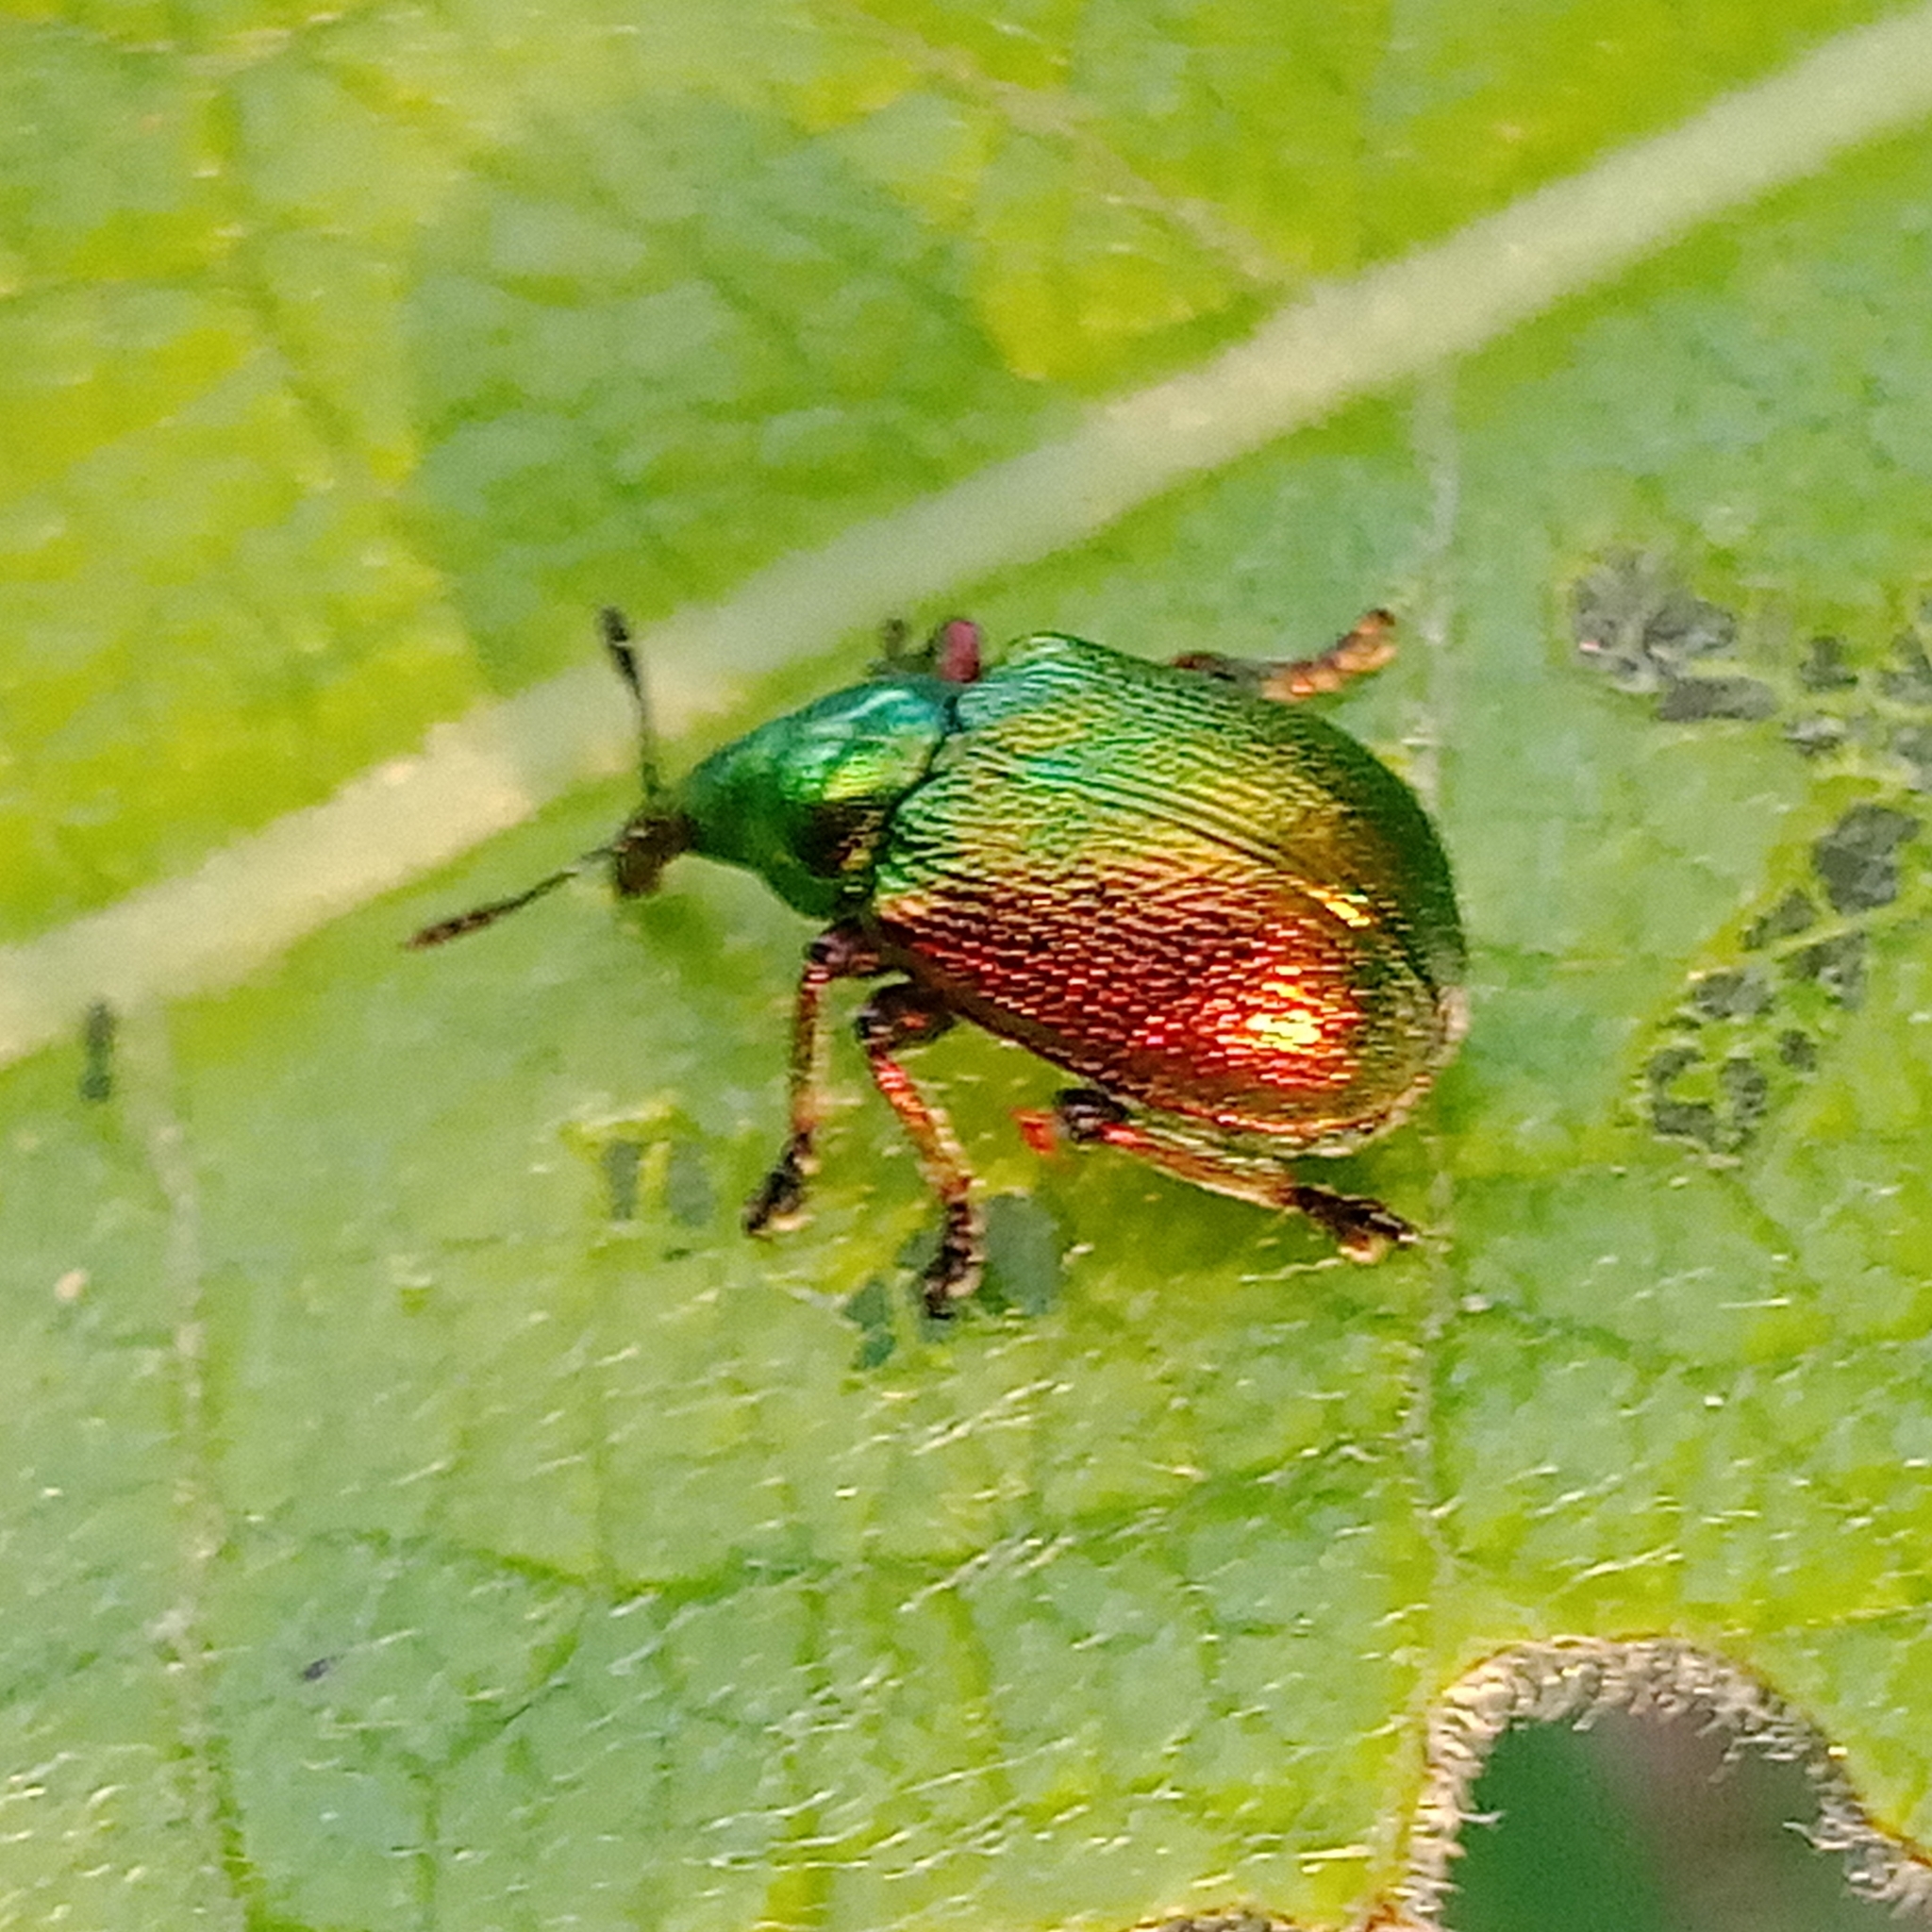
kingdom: Animalia
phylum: Arthropoda
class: Insecta
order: Coleoptera
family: Attelabidae
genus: Byctiscus
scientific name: Byctiscus populi
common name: Leaf-rolling weevil
